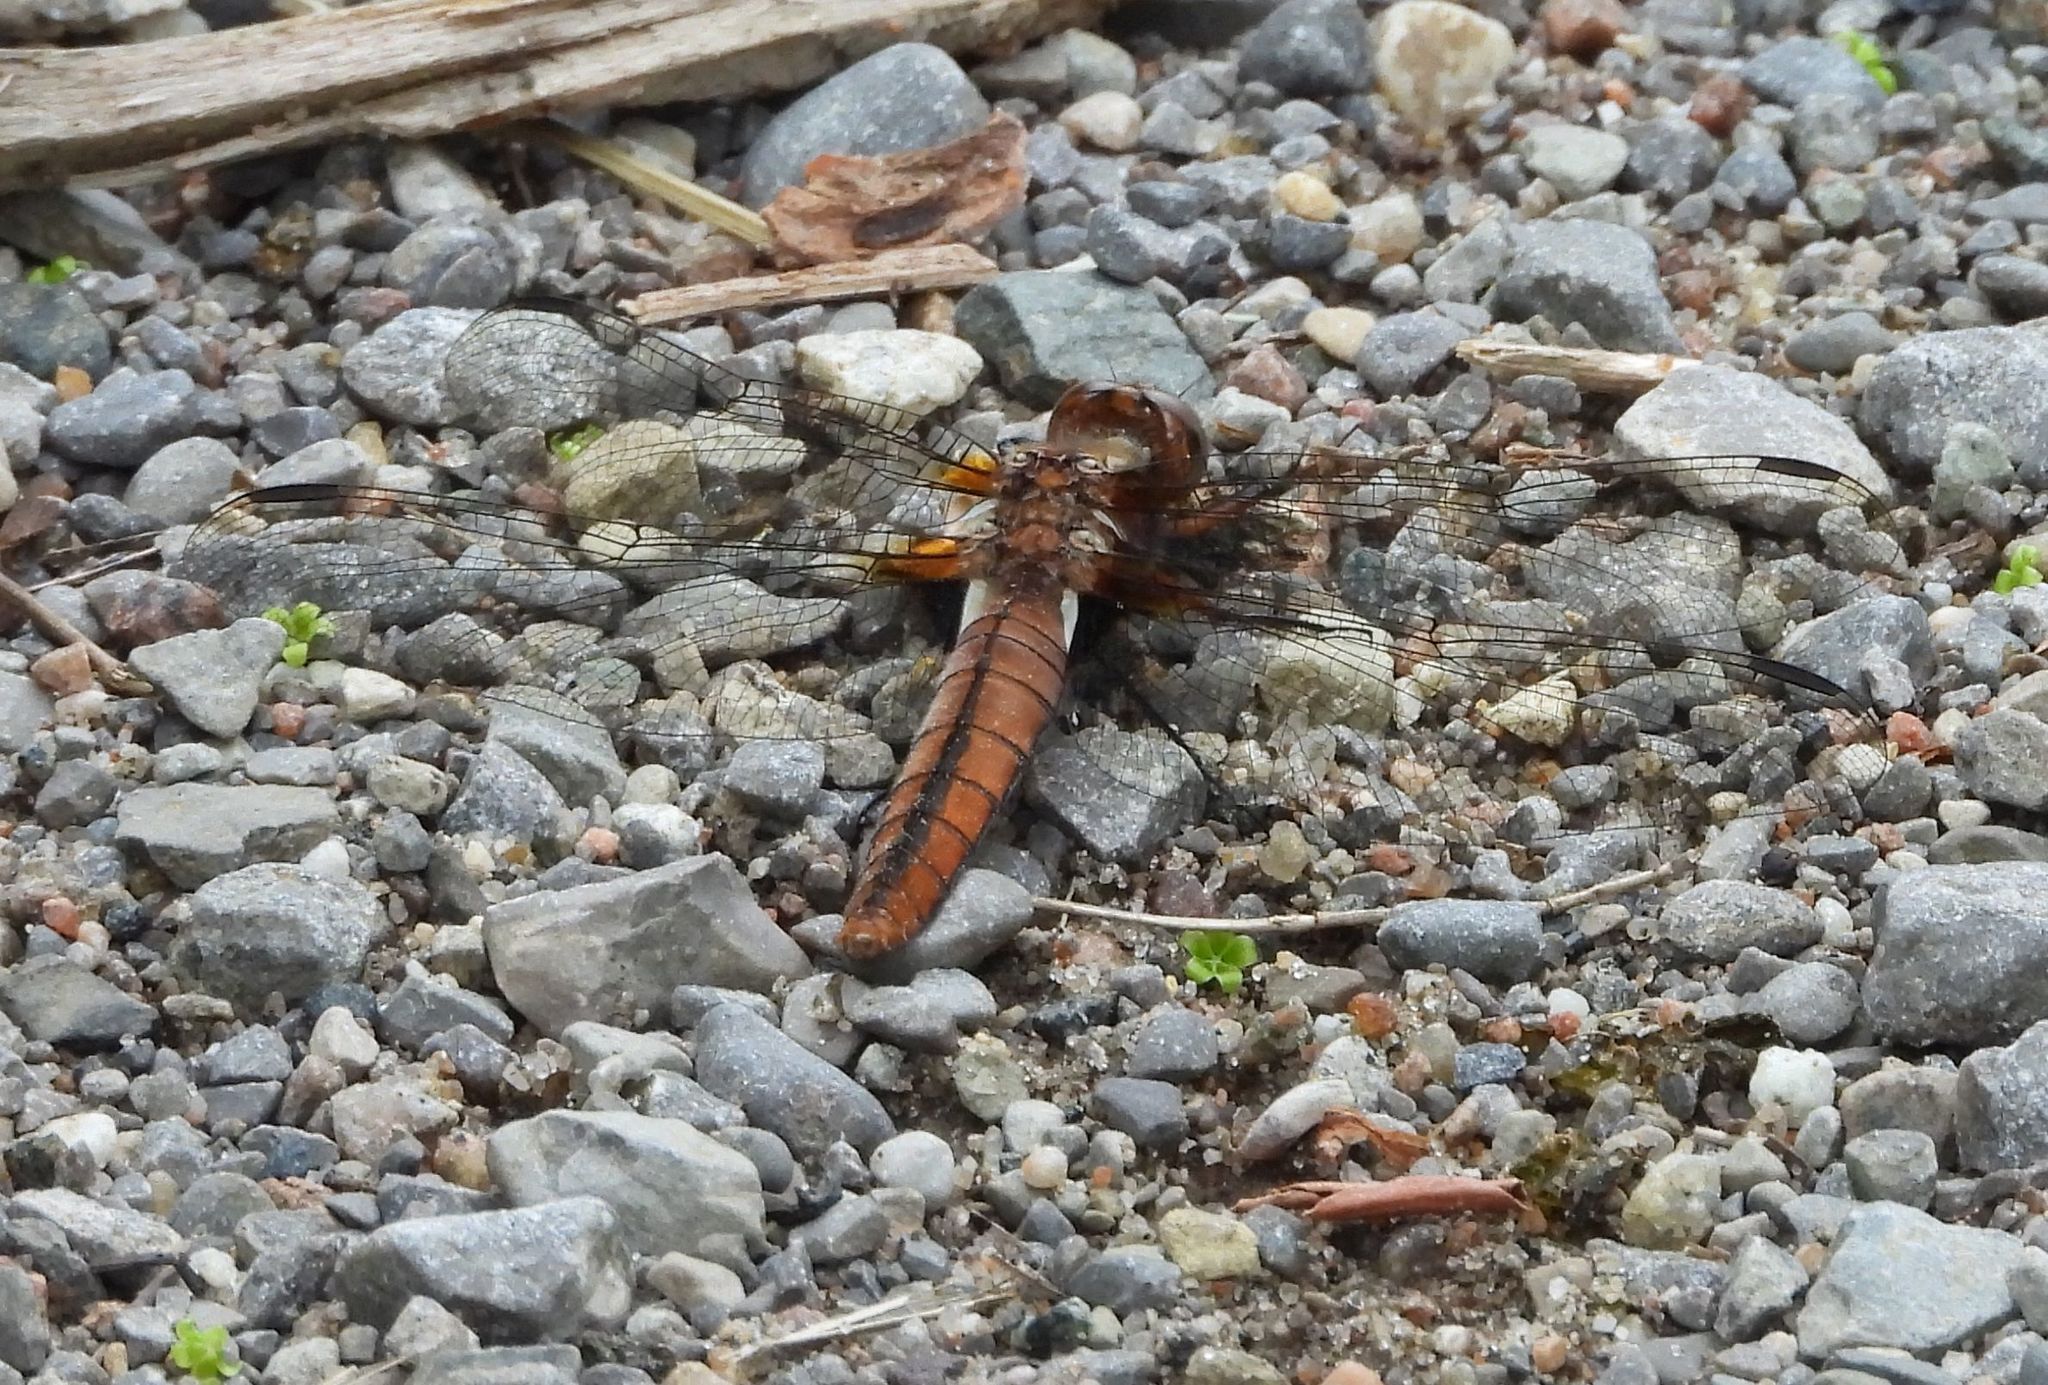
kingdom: Animalia
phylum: Arthropoda
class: Insecta
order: Odonata
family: Libellulidae
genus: Ladona
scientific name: Ladona julia
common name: Chalk-fronted corporal
